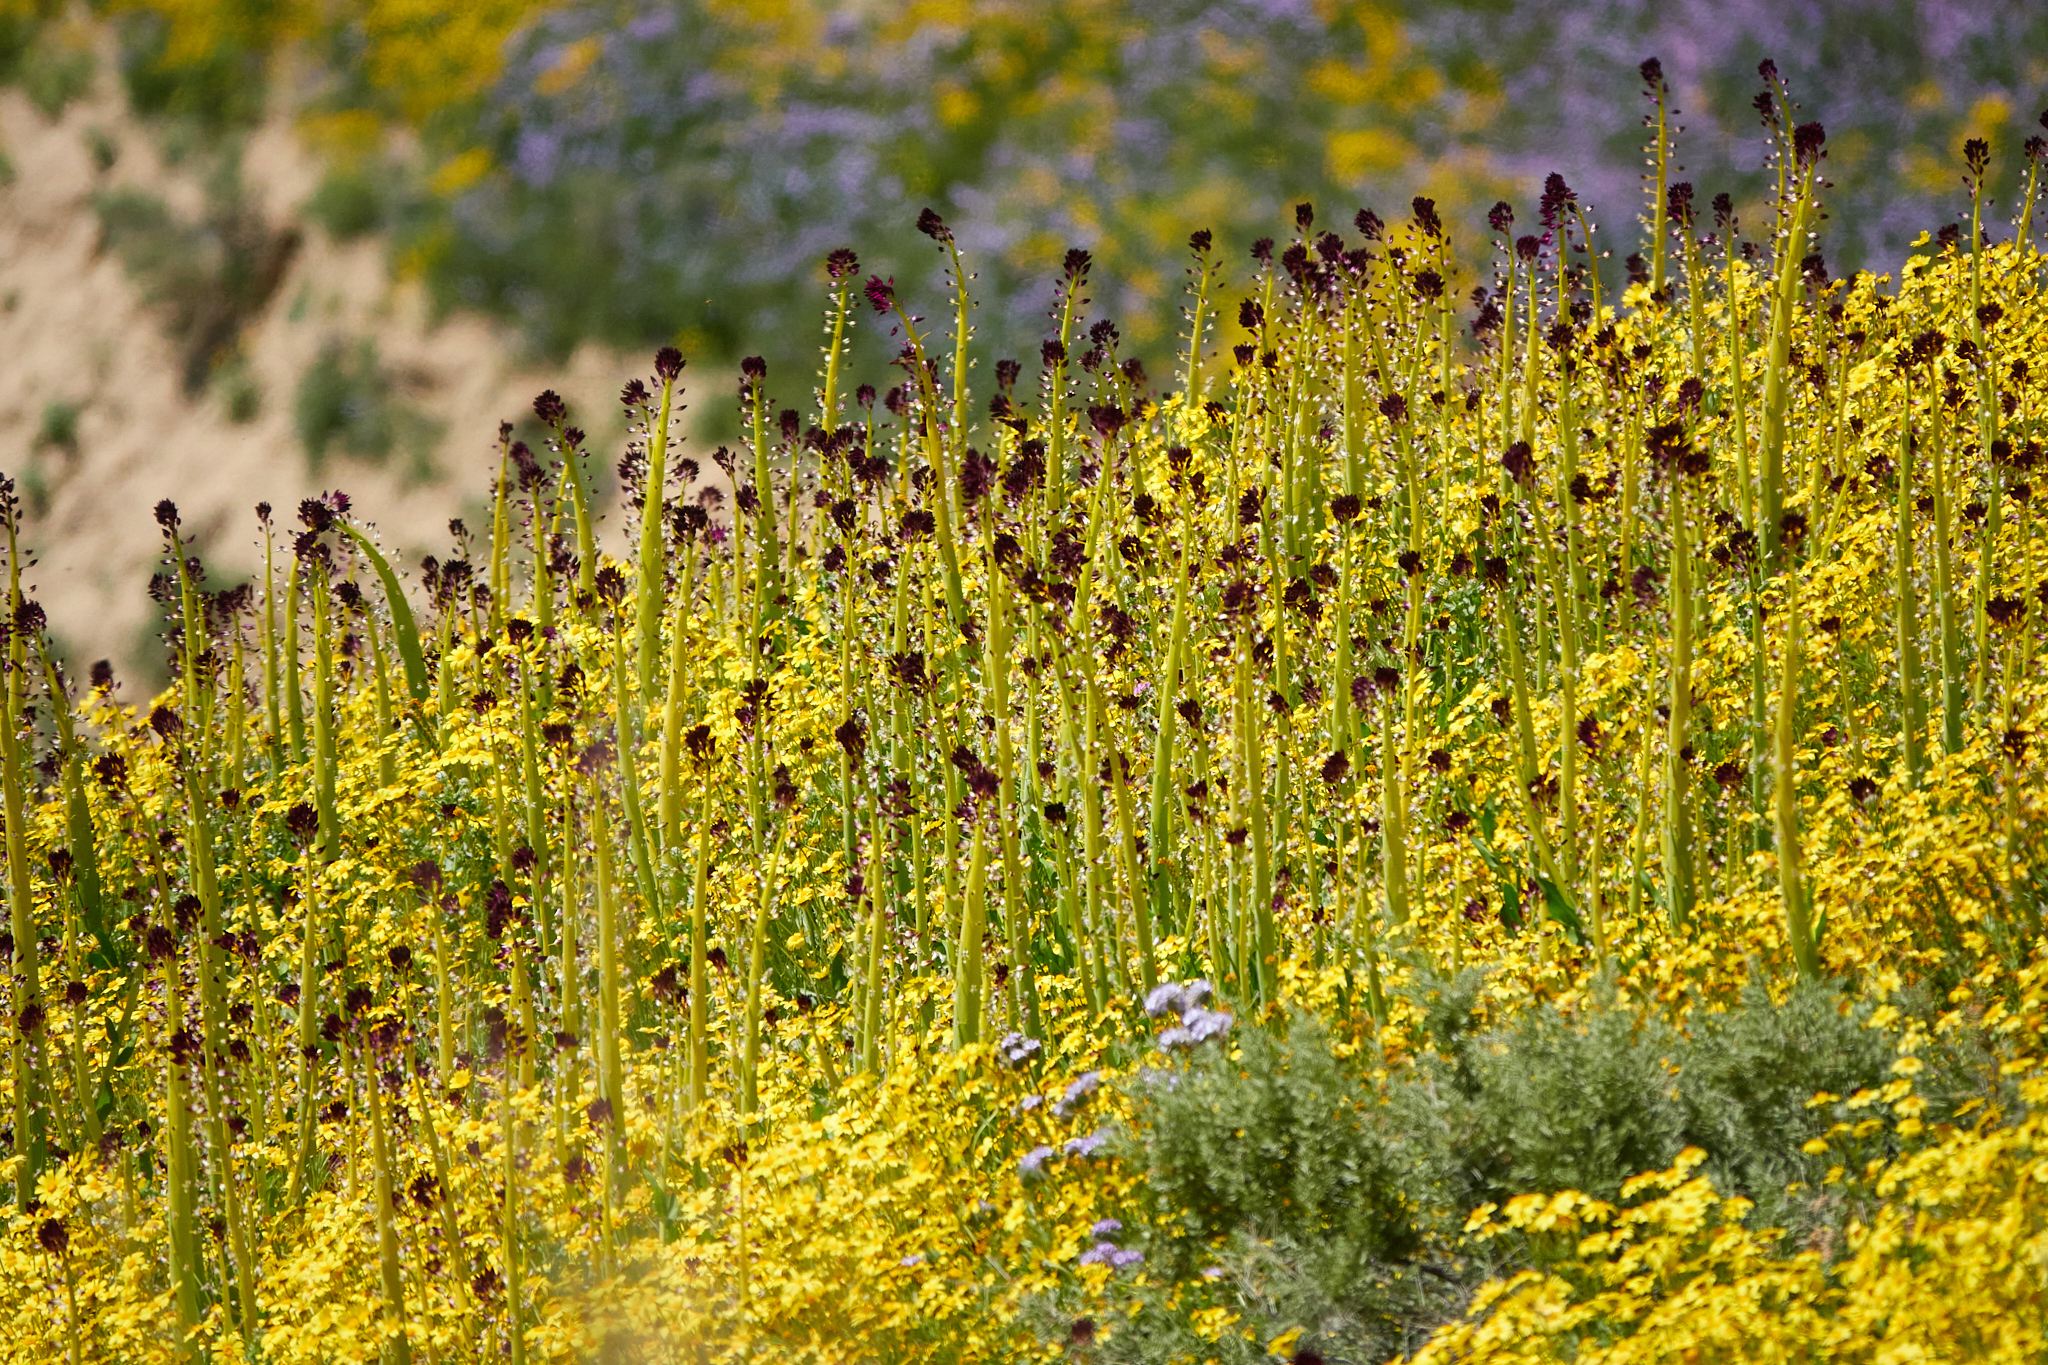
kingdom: Plantae
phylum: Tracheophyta
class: Magnoliopsida
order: Brassicales
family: Brassicaceae
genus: Streptanthus
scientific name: Streptanthus inflatus
